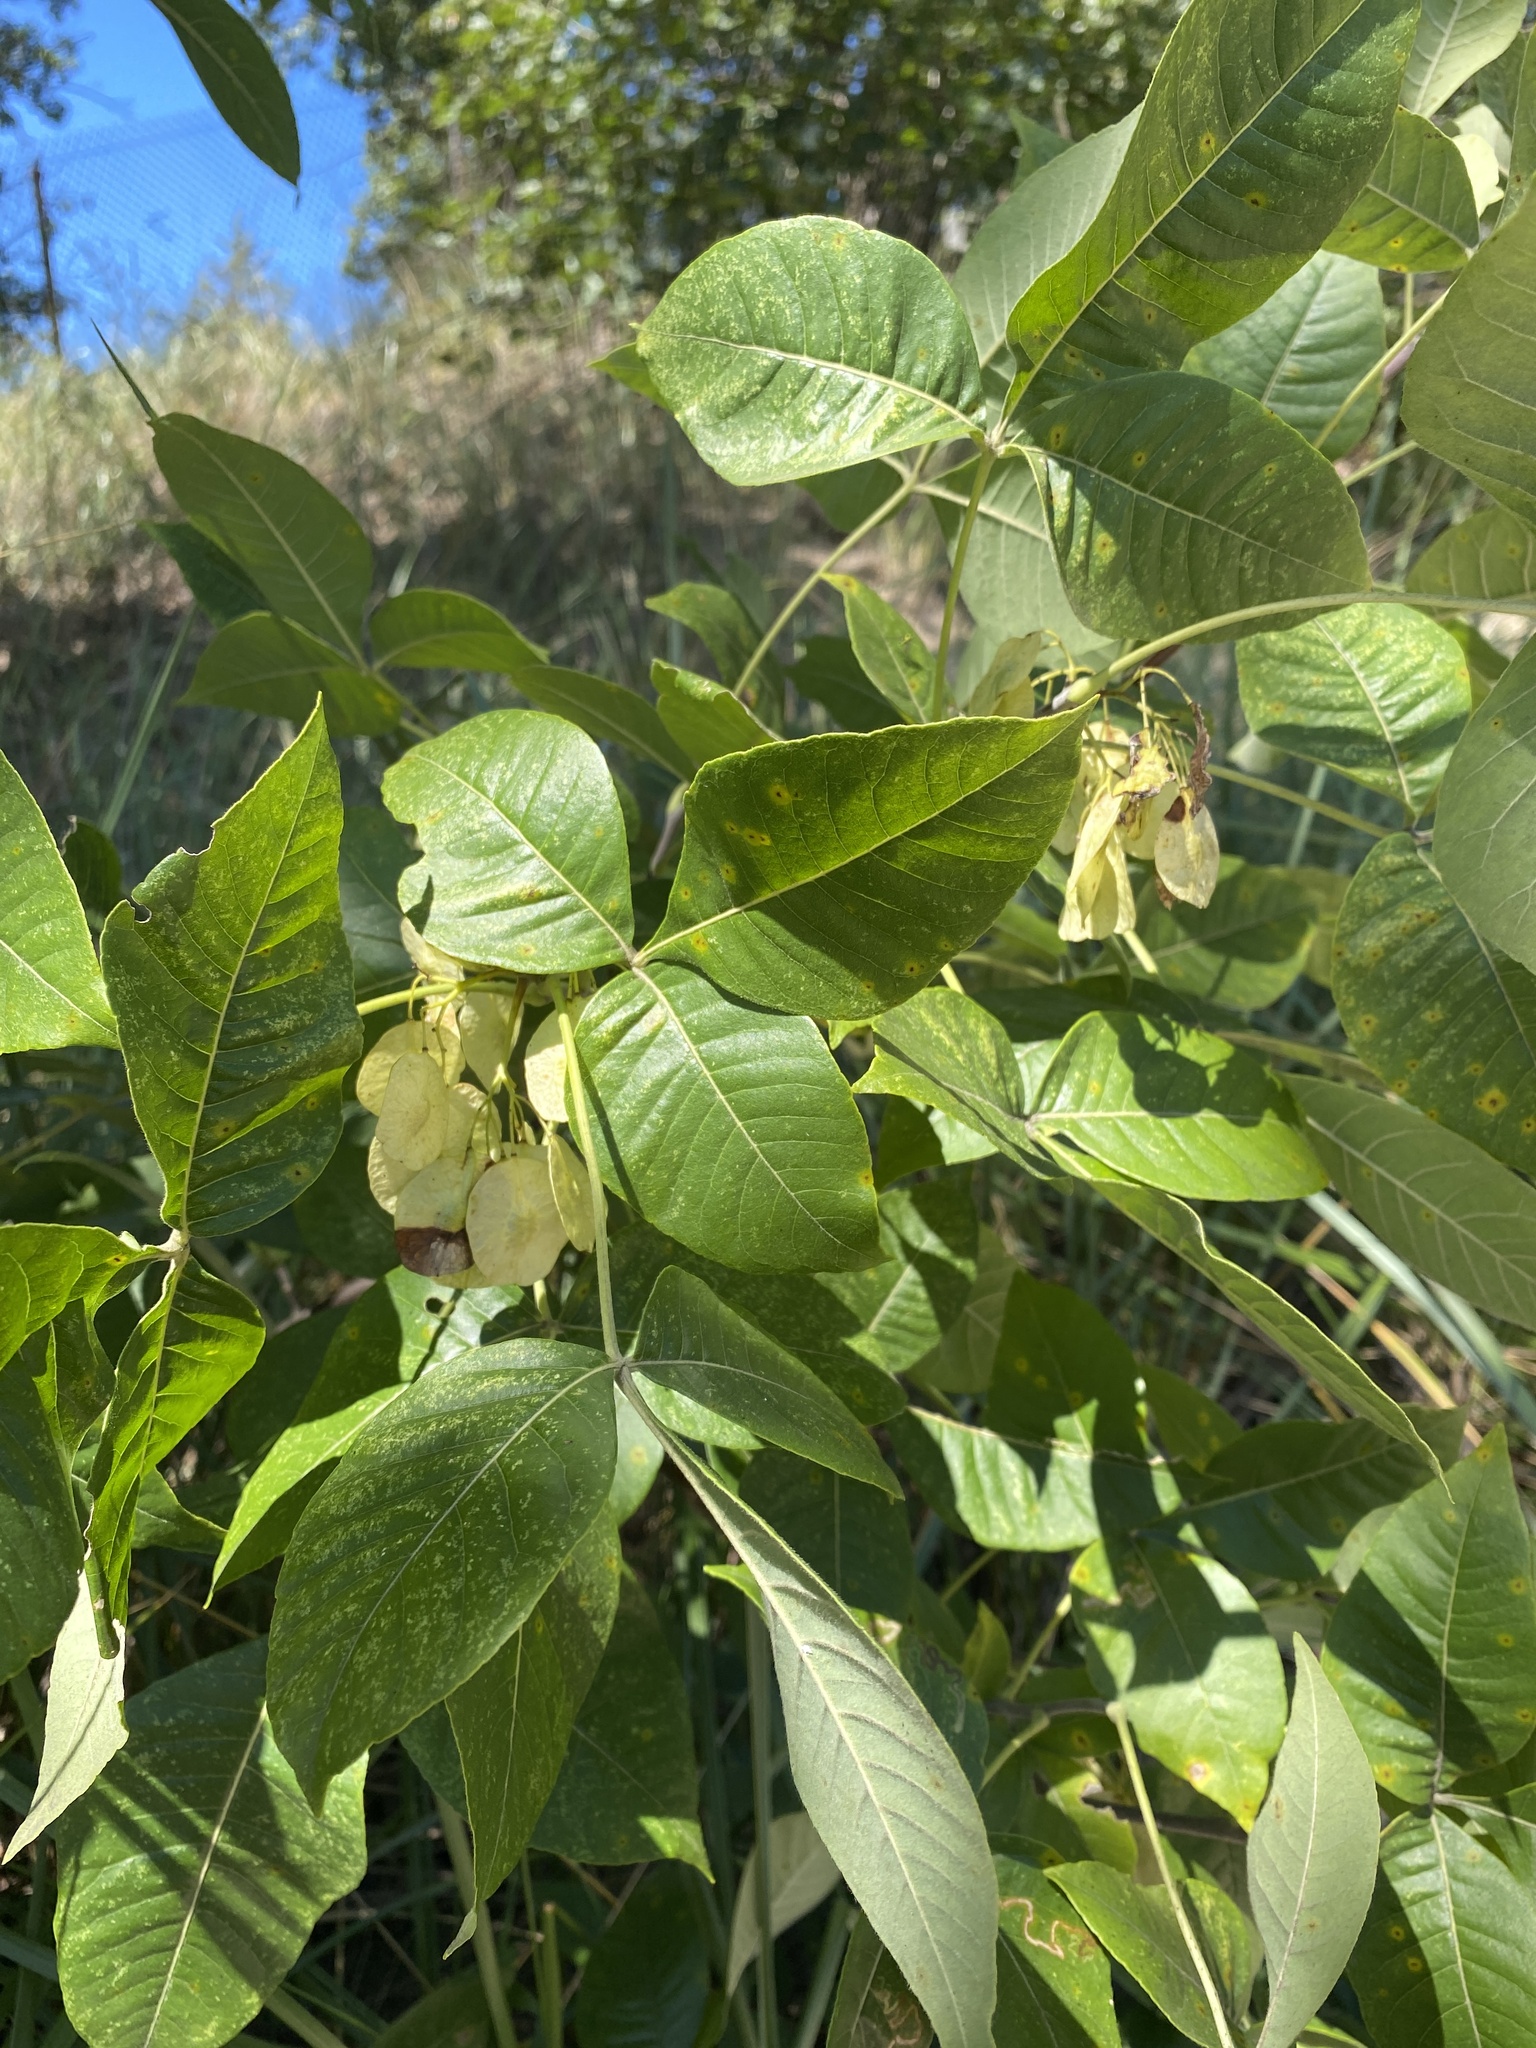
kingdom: Plantae
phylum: Tracheophyta
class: Magnoliopsida
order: Sapindales
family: Rutaceae
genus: Ptelea
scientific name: Ptelea trifoliata
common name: Common hop-tree
